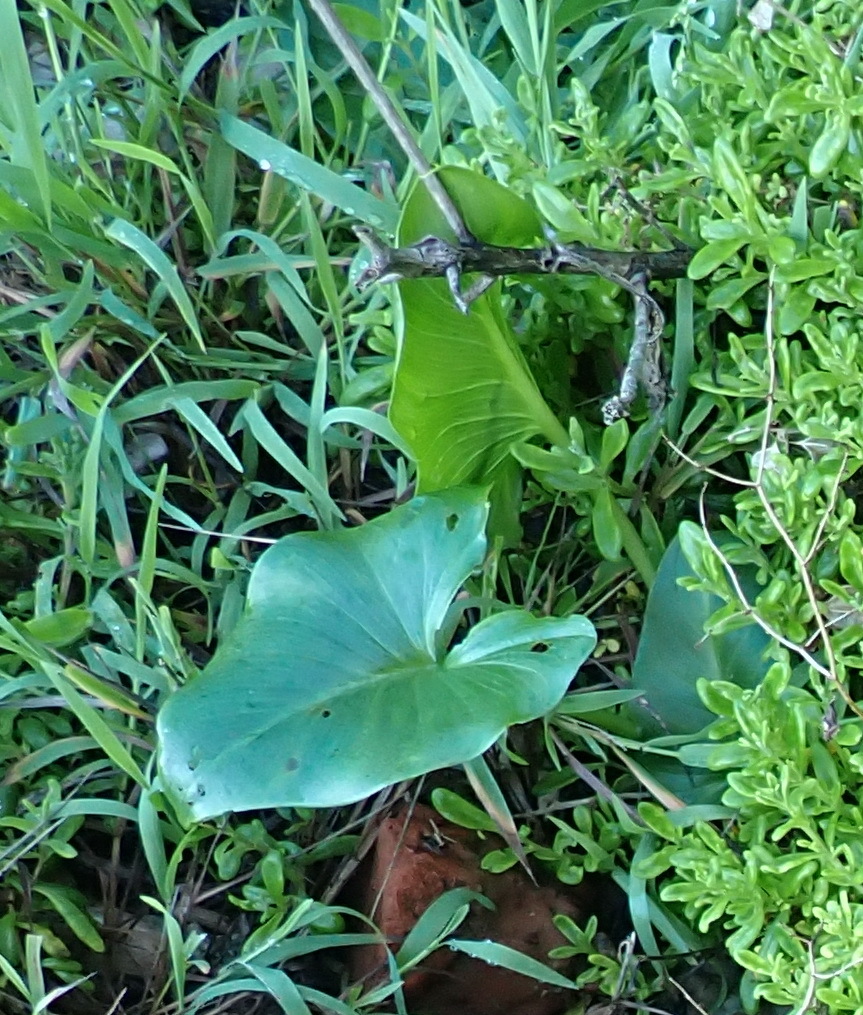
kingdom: Plantae
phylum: Tracheophyta
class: Liliopsida
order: Alismatales
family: Araceae
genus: Zantedeschia
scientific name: Zantedeschia aethiopica
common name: Altar-lily
